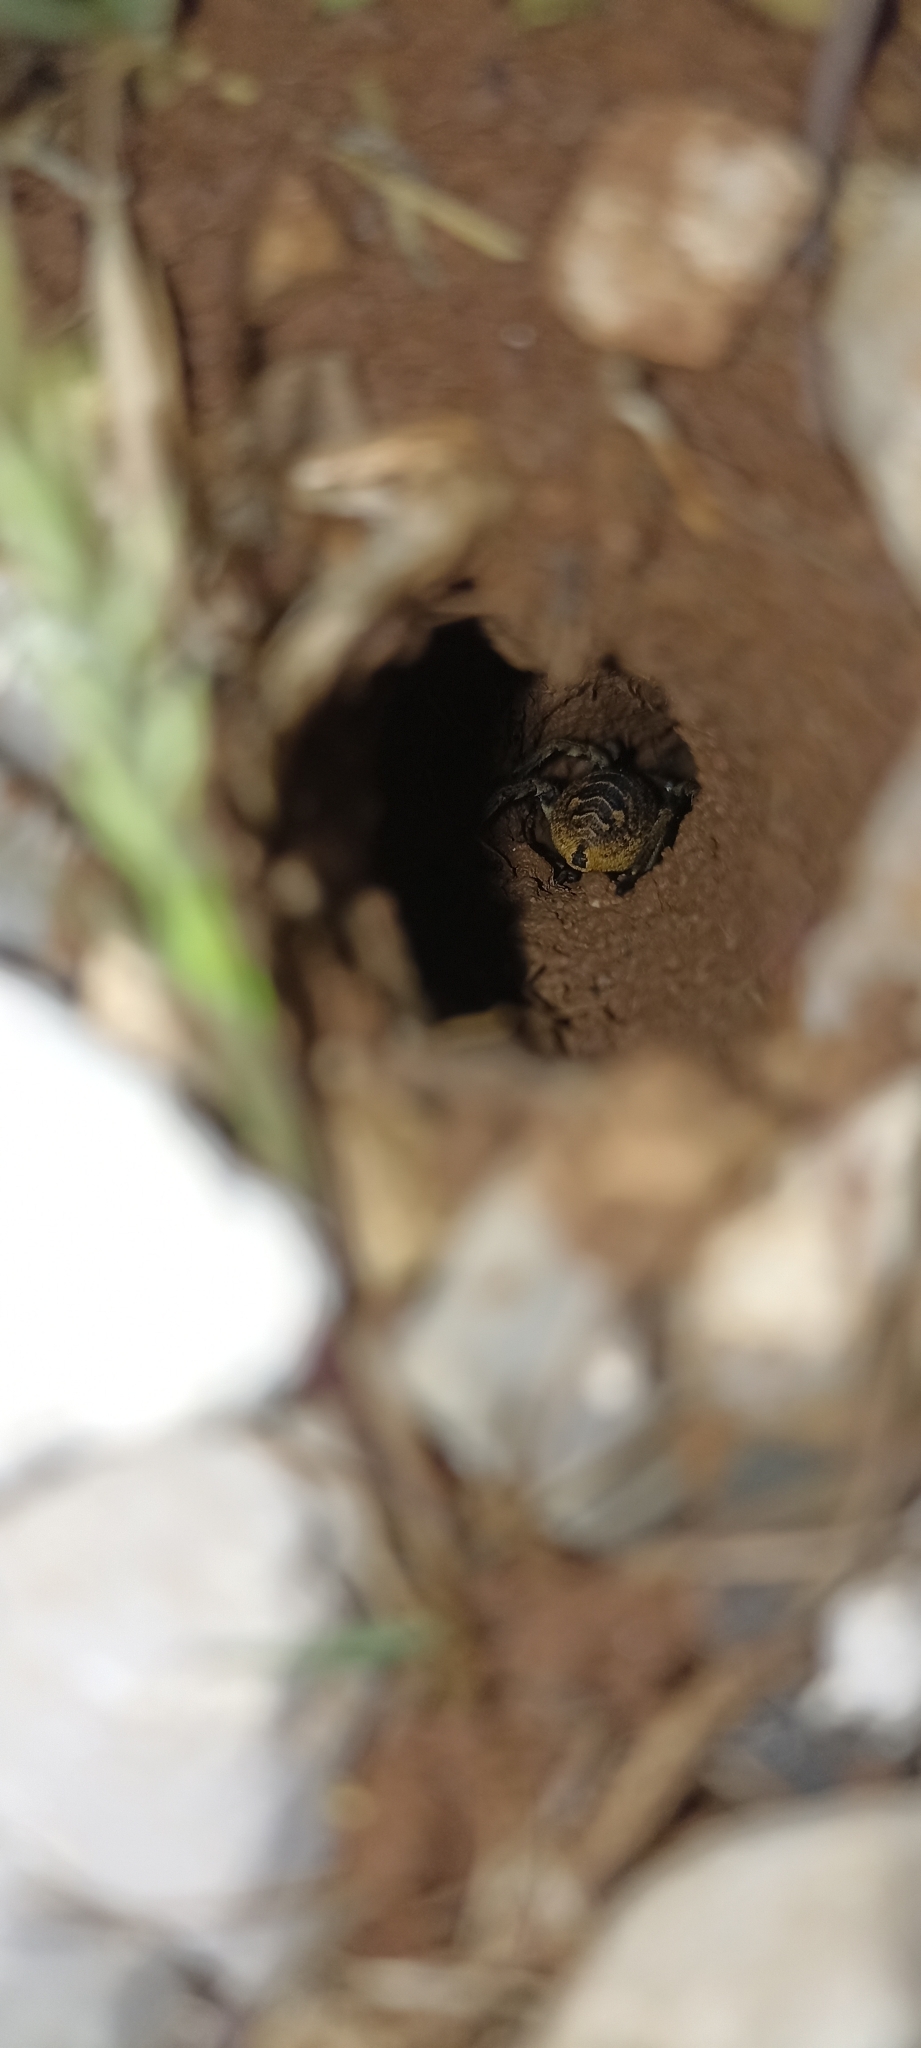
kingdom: Animalia
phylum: Arthropoda
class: Arachnida
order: Araneae
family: Lycosidae
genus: Lycosa
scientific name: Lycosa tarantula
